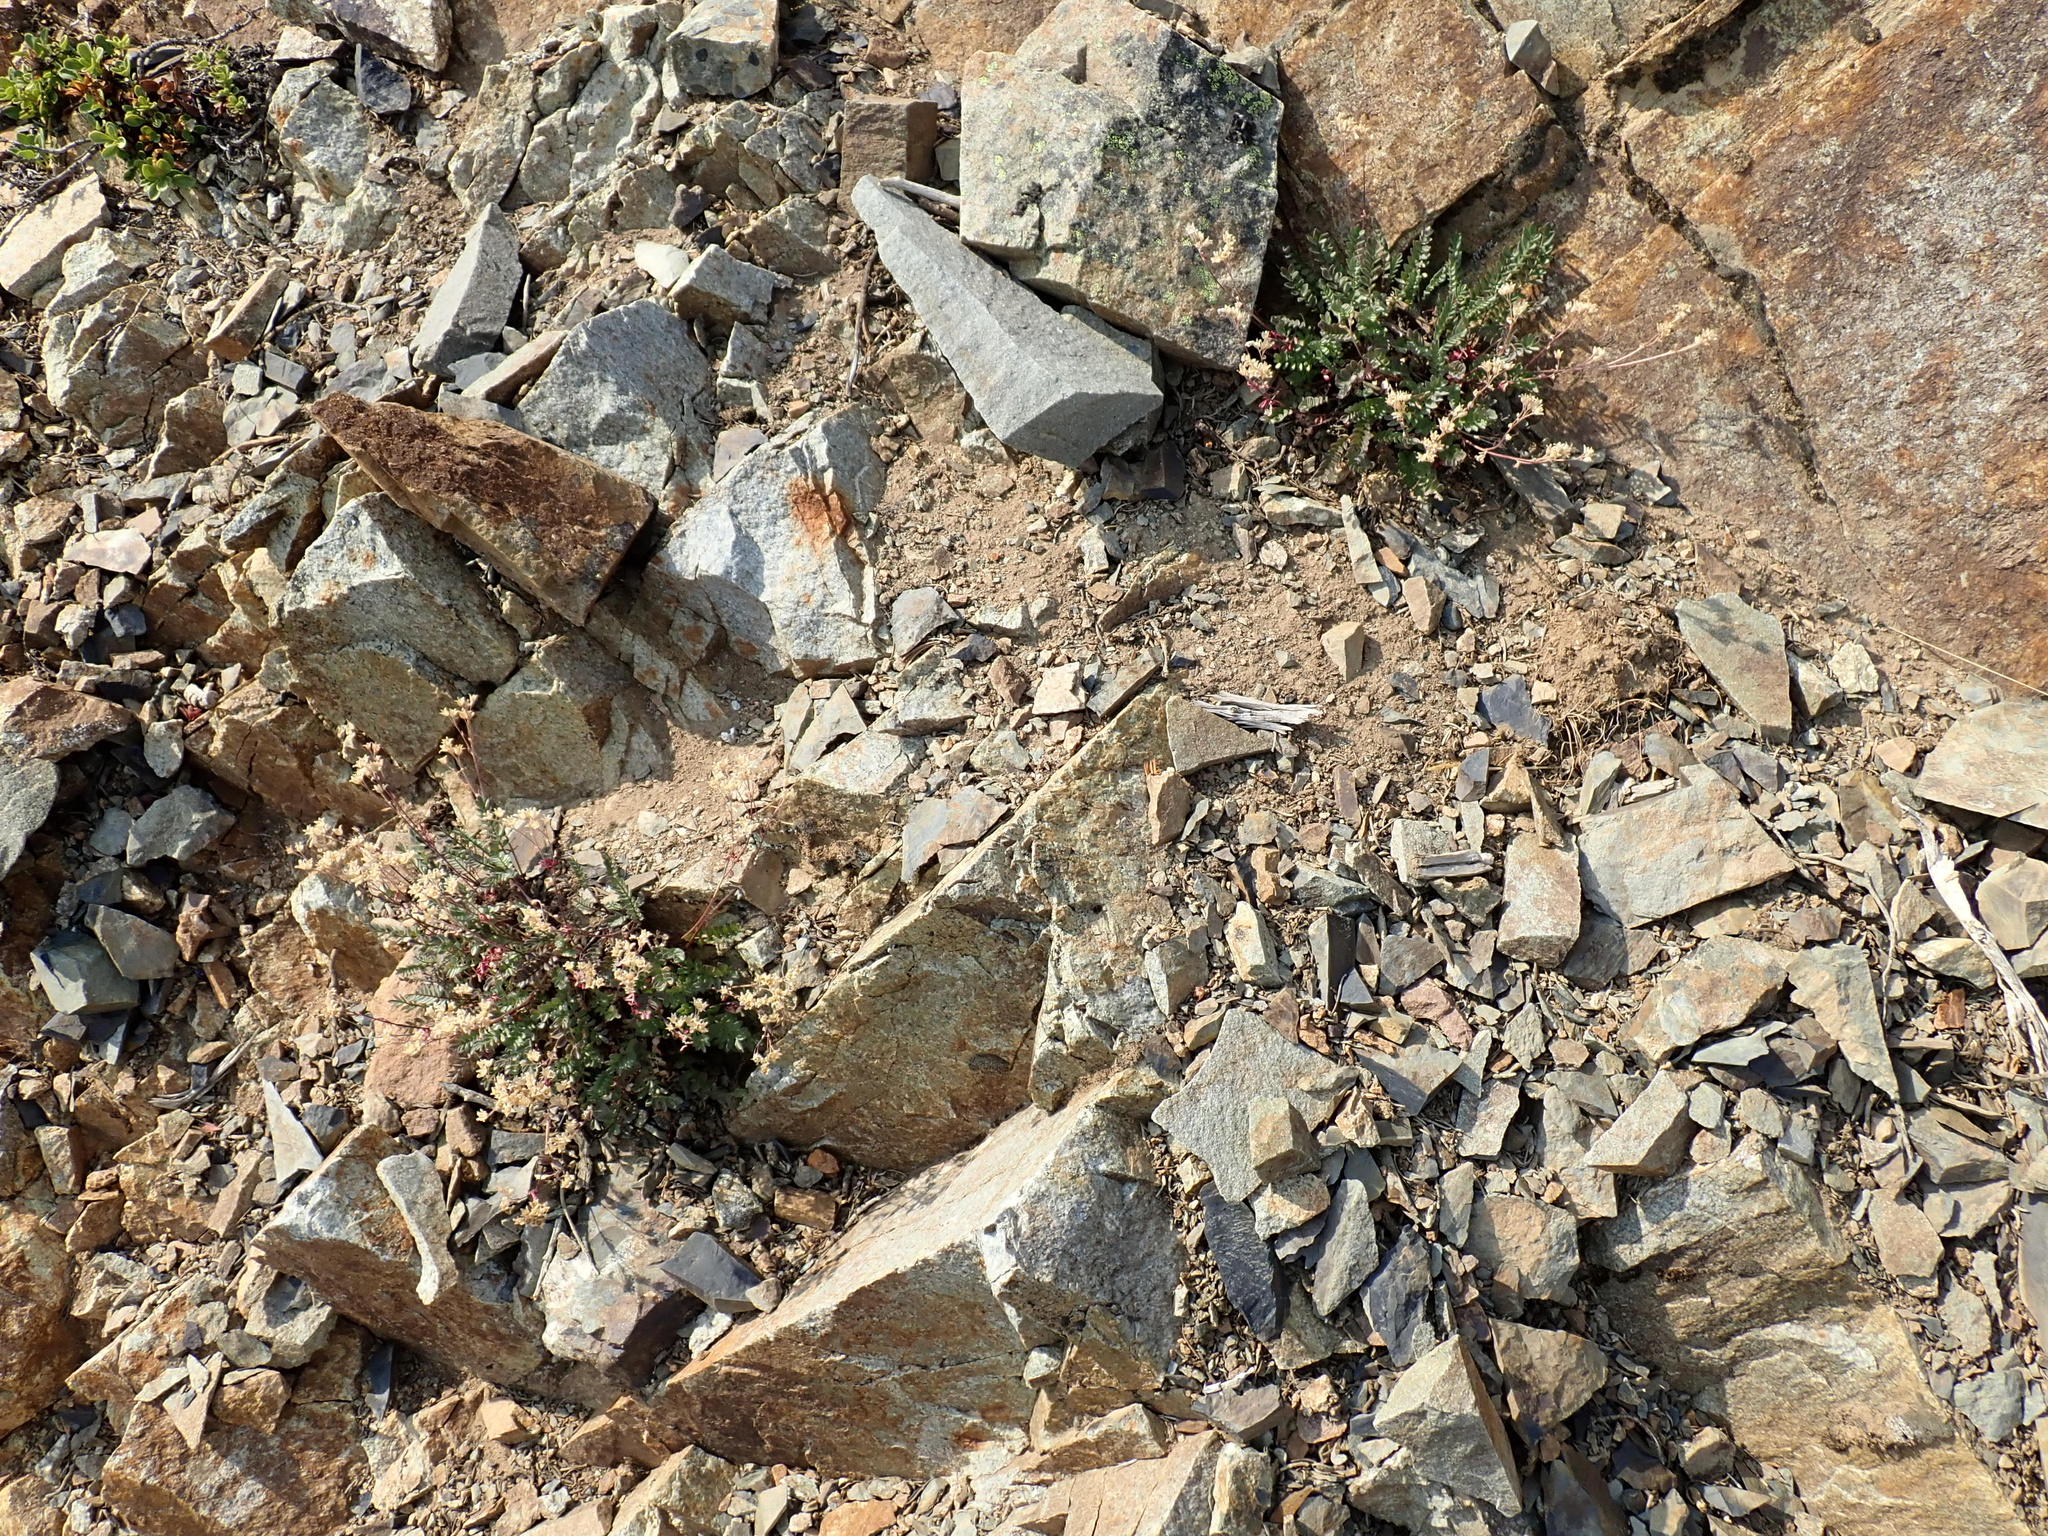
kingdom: Plantae
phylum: Tracheophyta
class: Magnoliopsida
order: Ericales
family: Polemoniaceae
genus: Polemonium
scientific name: Polemonium pulcherrimum
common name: Short jacob's-ladder
